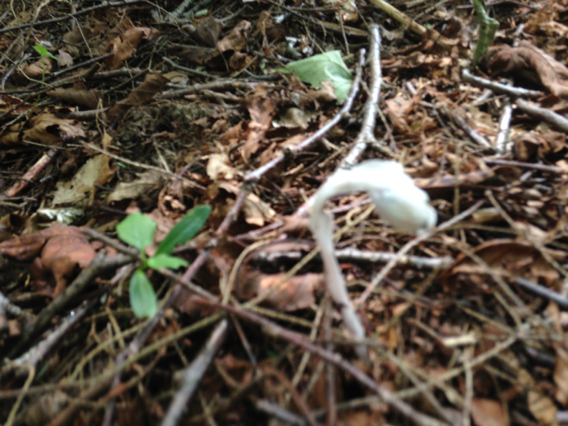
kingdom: Plantae
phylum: Tracheophyta
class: Magnoliopsida
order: Ericales
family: Ericaceae
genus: Monotropa
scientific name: Monotropa uniflora
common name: Convulsion root
